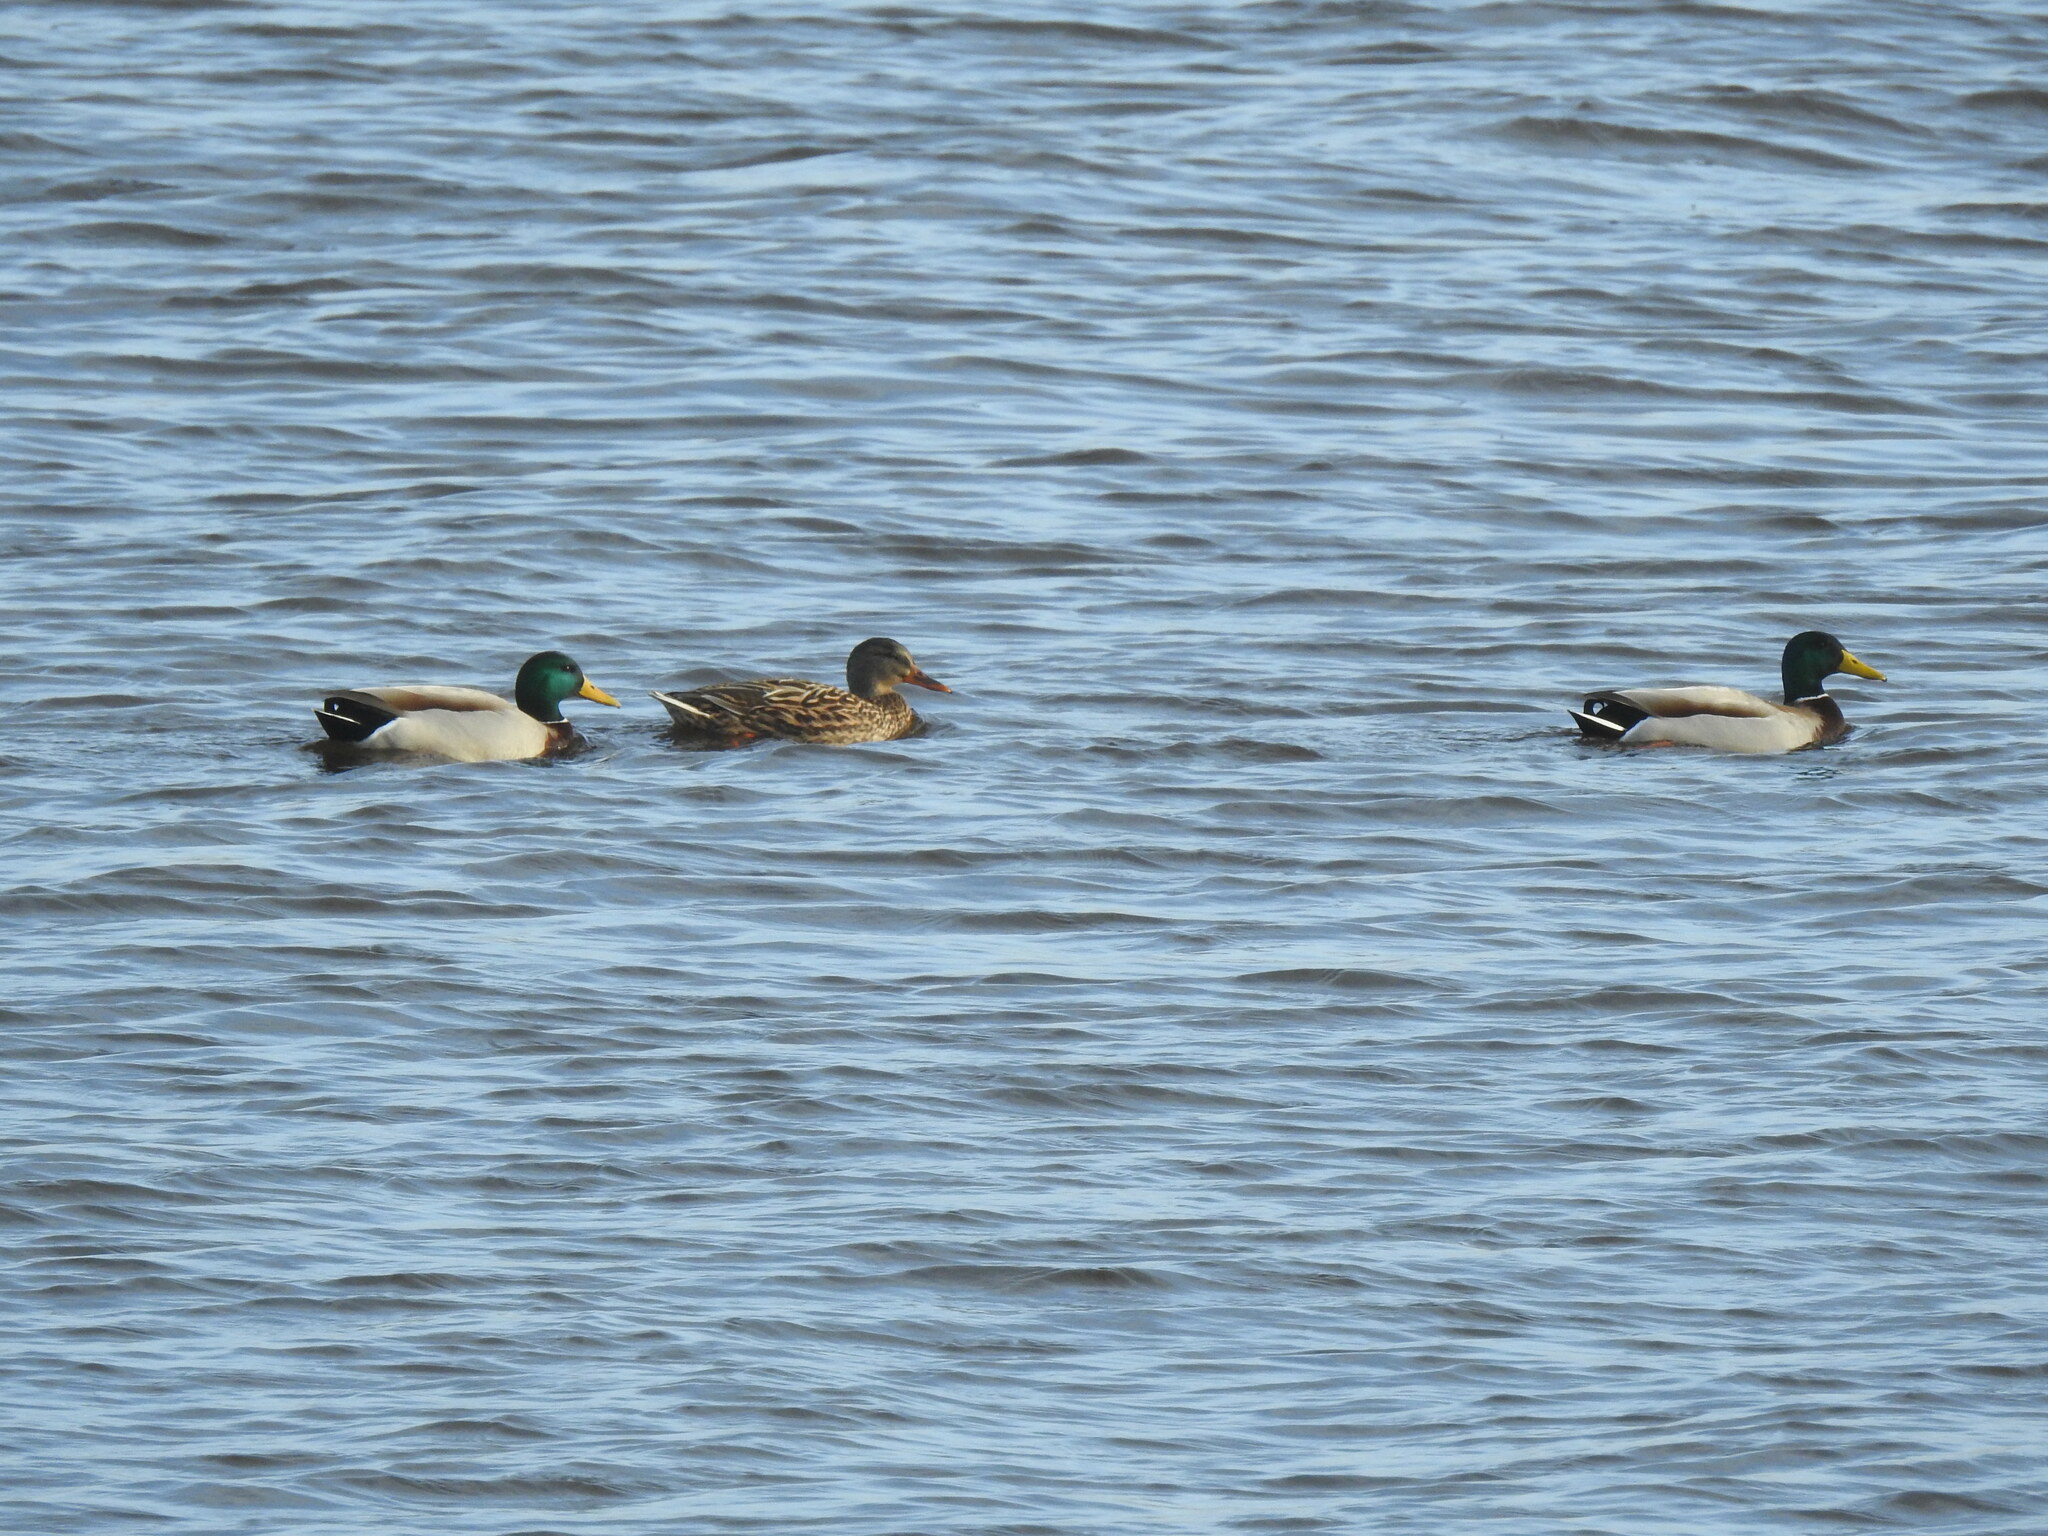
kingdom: Animalia
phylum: Chordata
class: Aves
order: Anseriformes
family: Anatidae
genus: Anas
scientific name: Anas platyrhynchos
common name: Mallard
